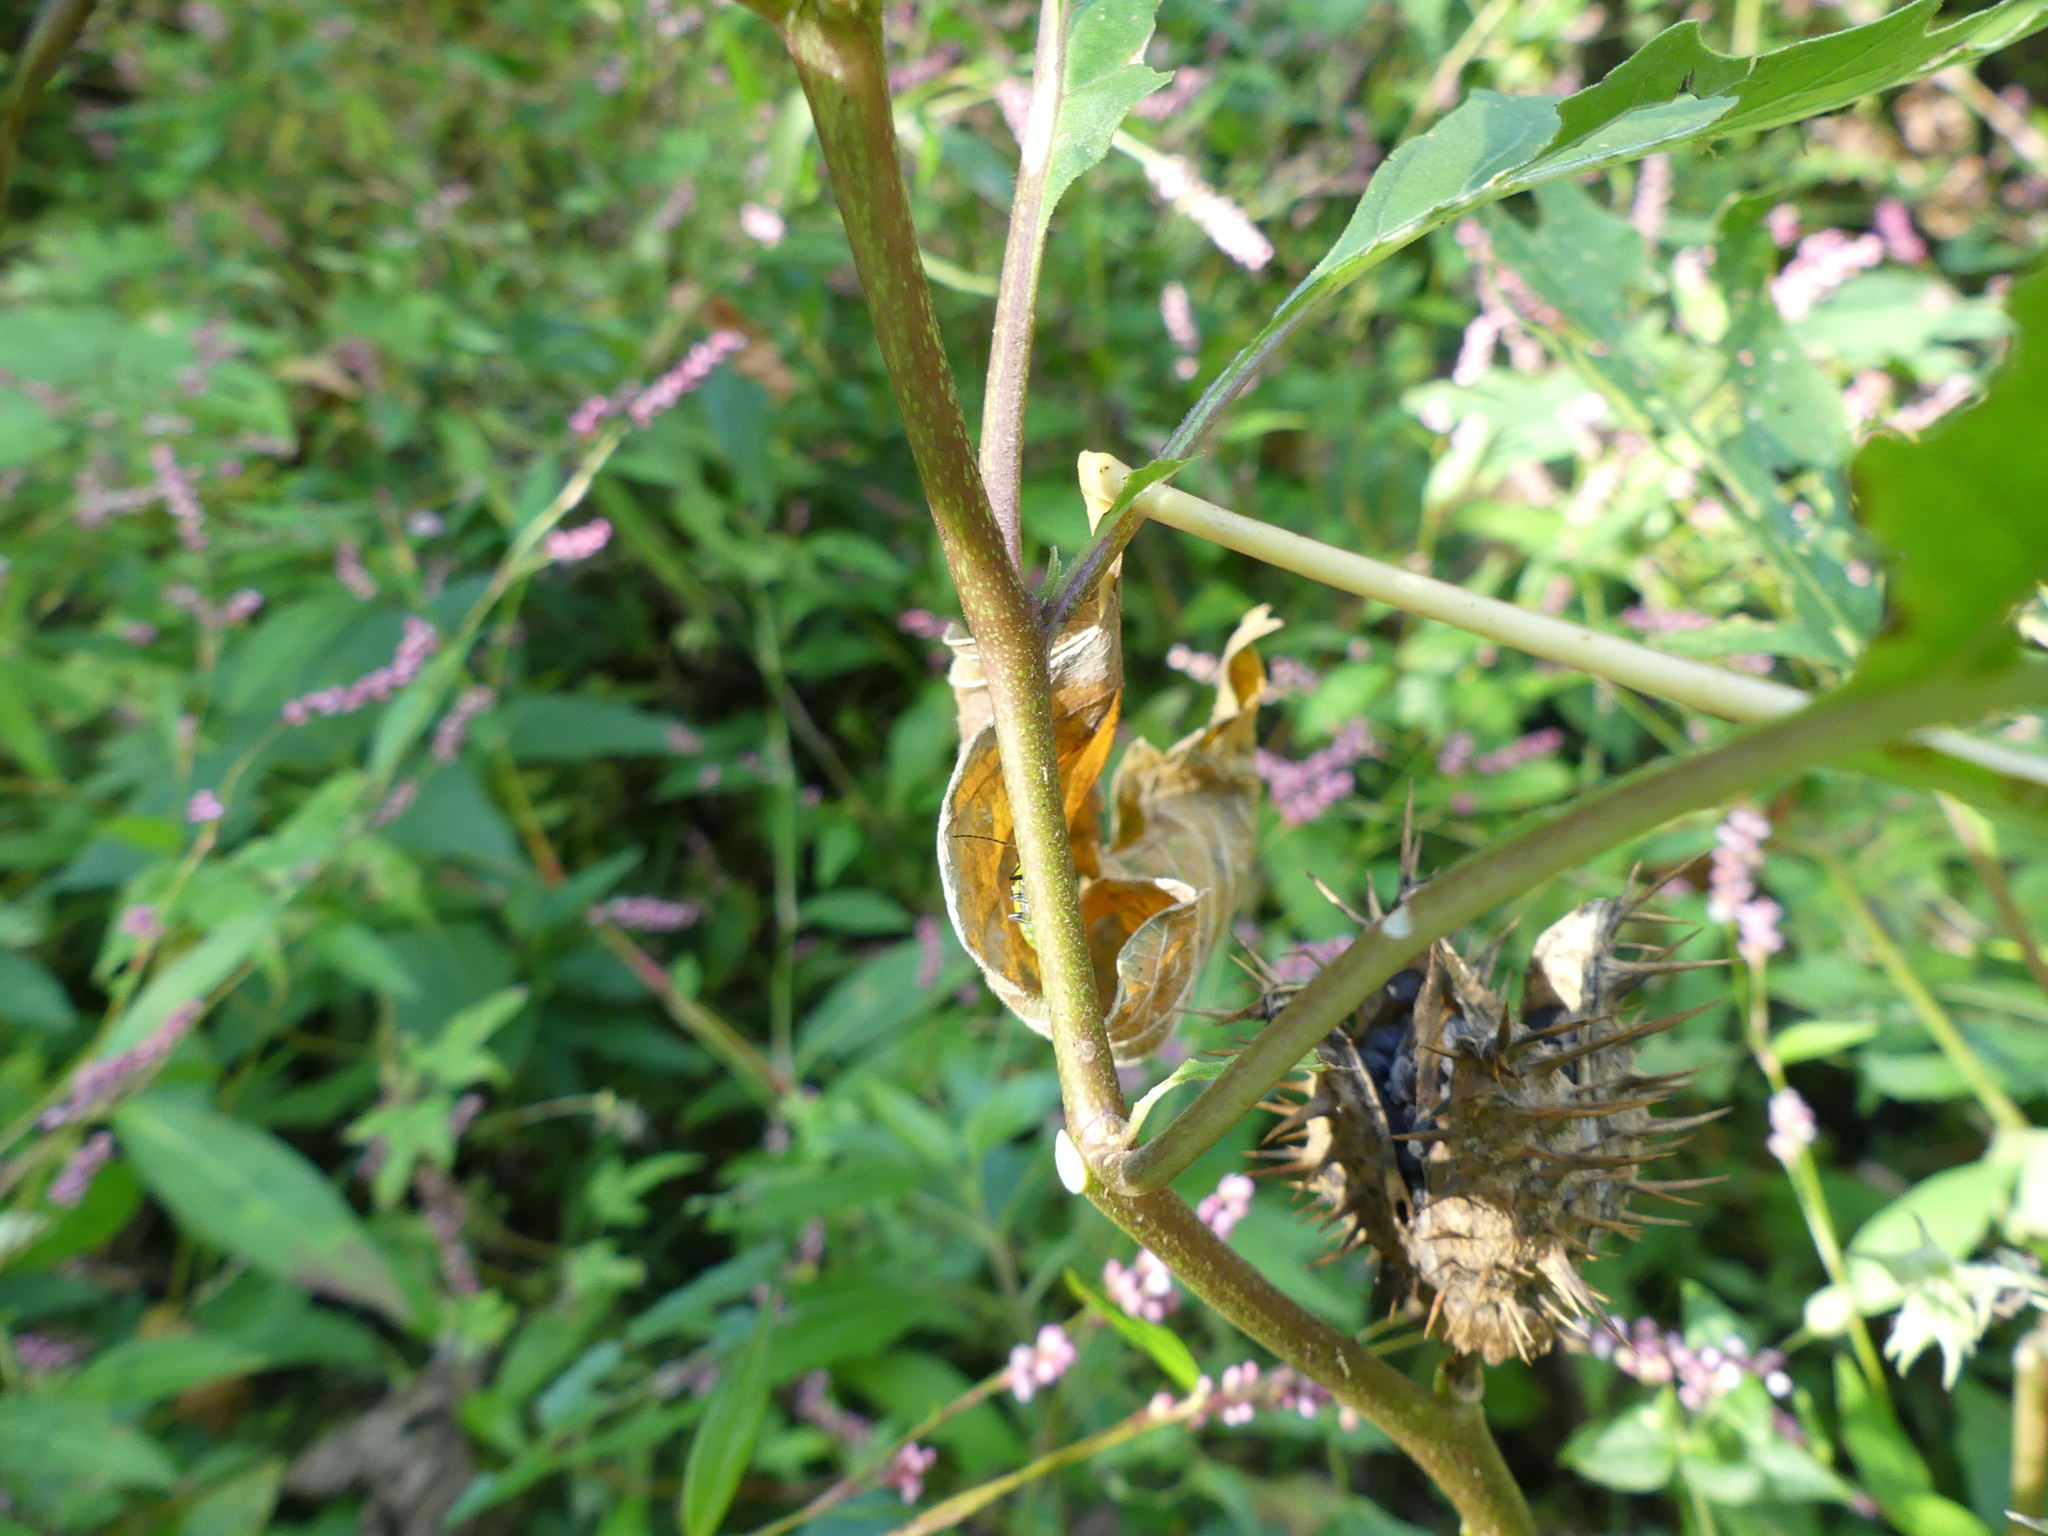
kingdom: Plantae
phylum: Tracheophyta
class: Magnoliopsida
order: Solanales
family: Solanaceae
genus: Datura
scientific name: Datura stramonium
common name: Thorn-apple
